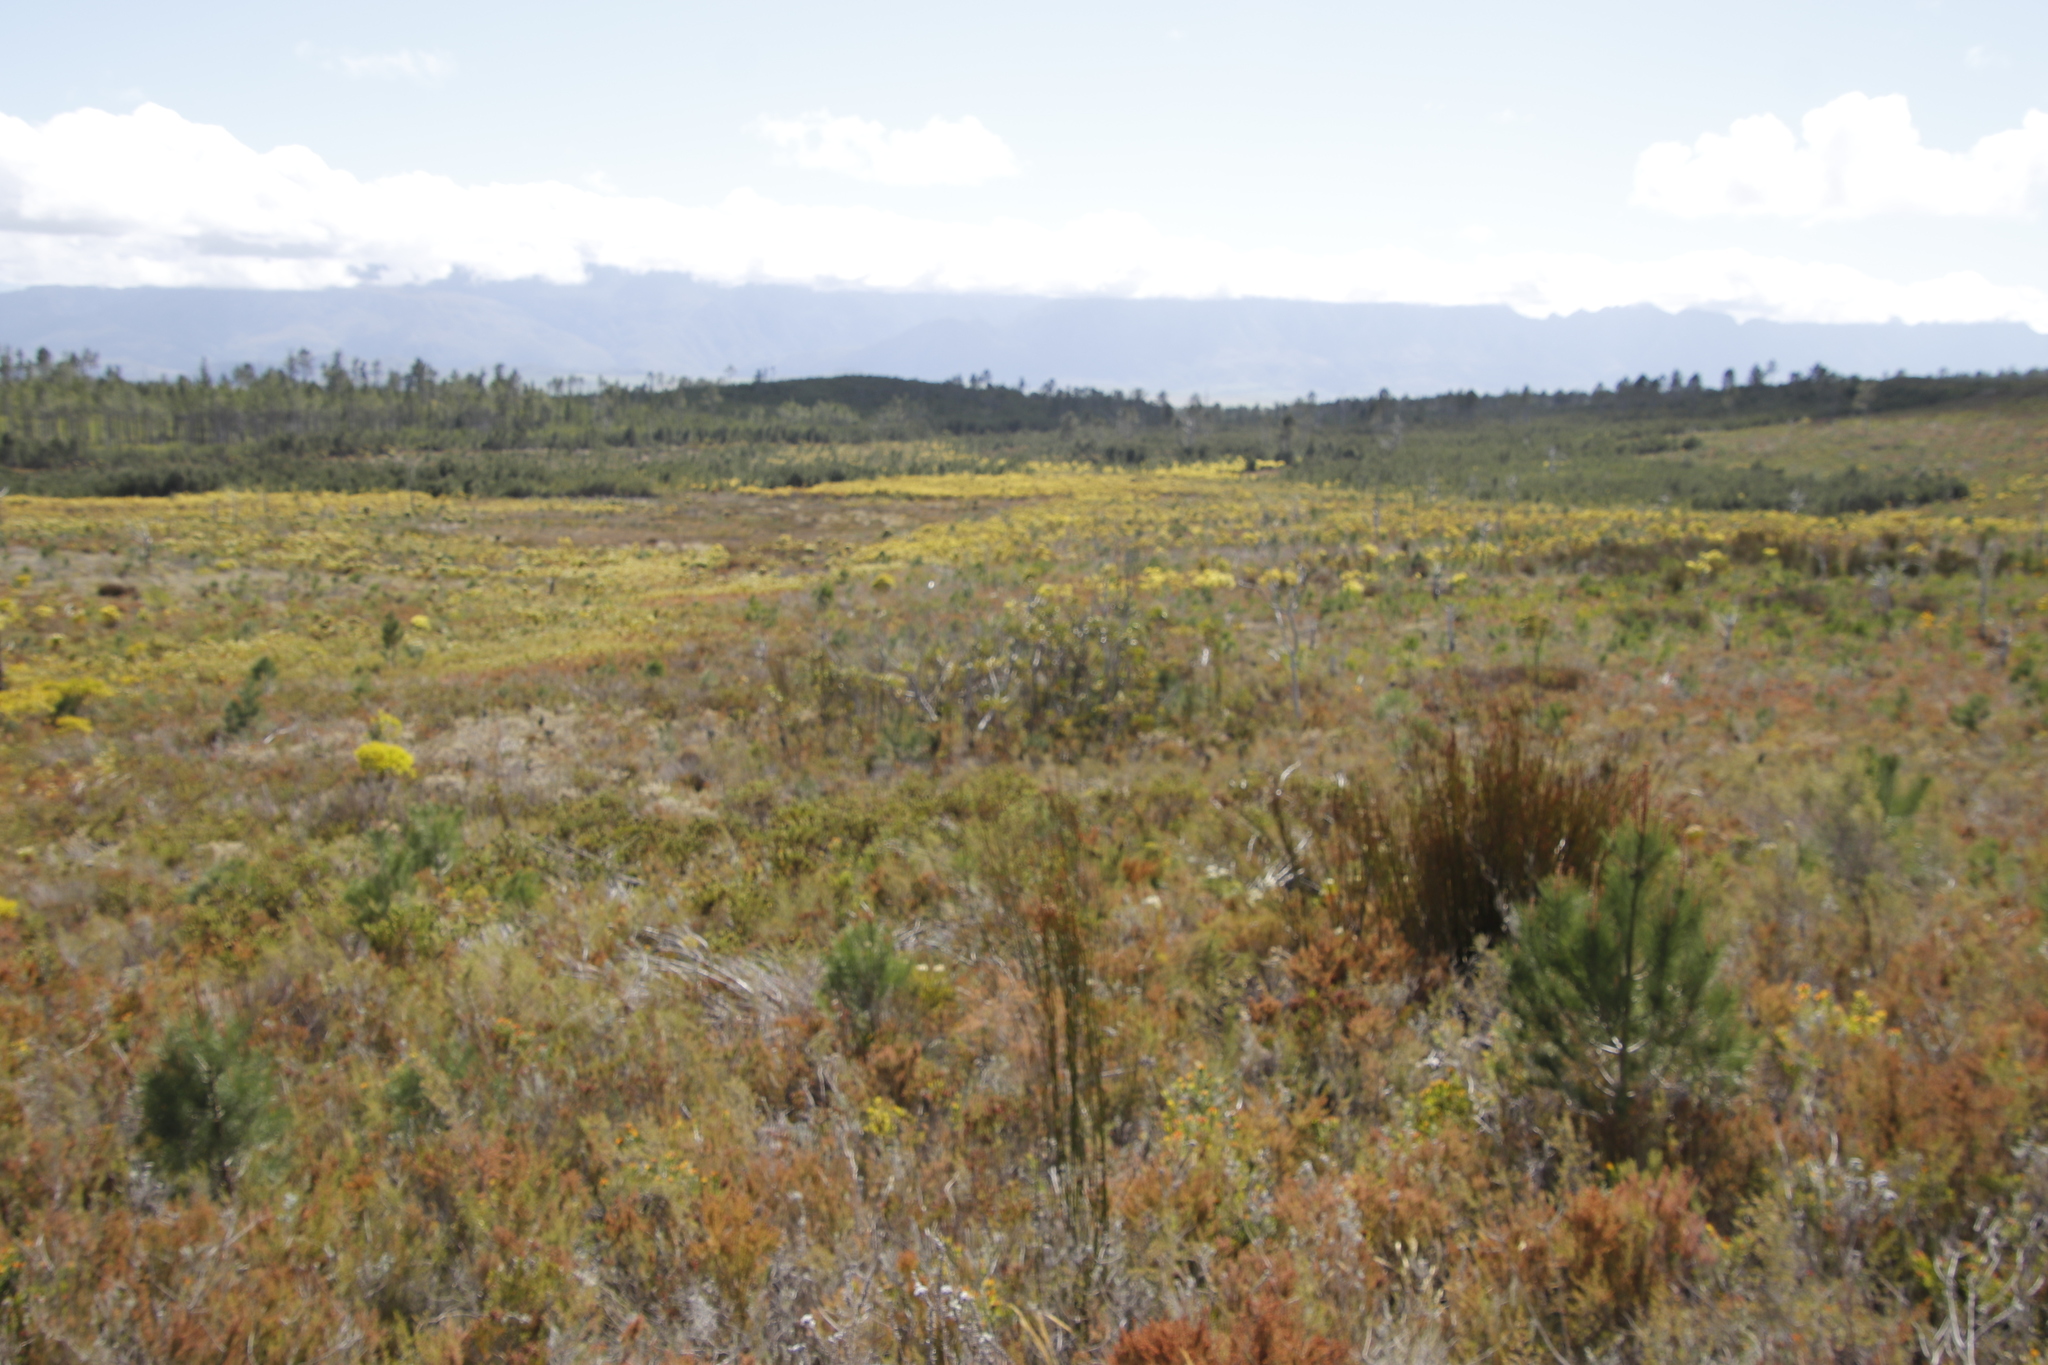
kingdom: Plantae
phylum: Tracheophyta
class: Magnoliopsida
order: Fabales
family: Fabaceae
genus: Acacia
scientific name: Acacia pycnantha
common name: Golden wattle
